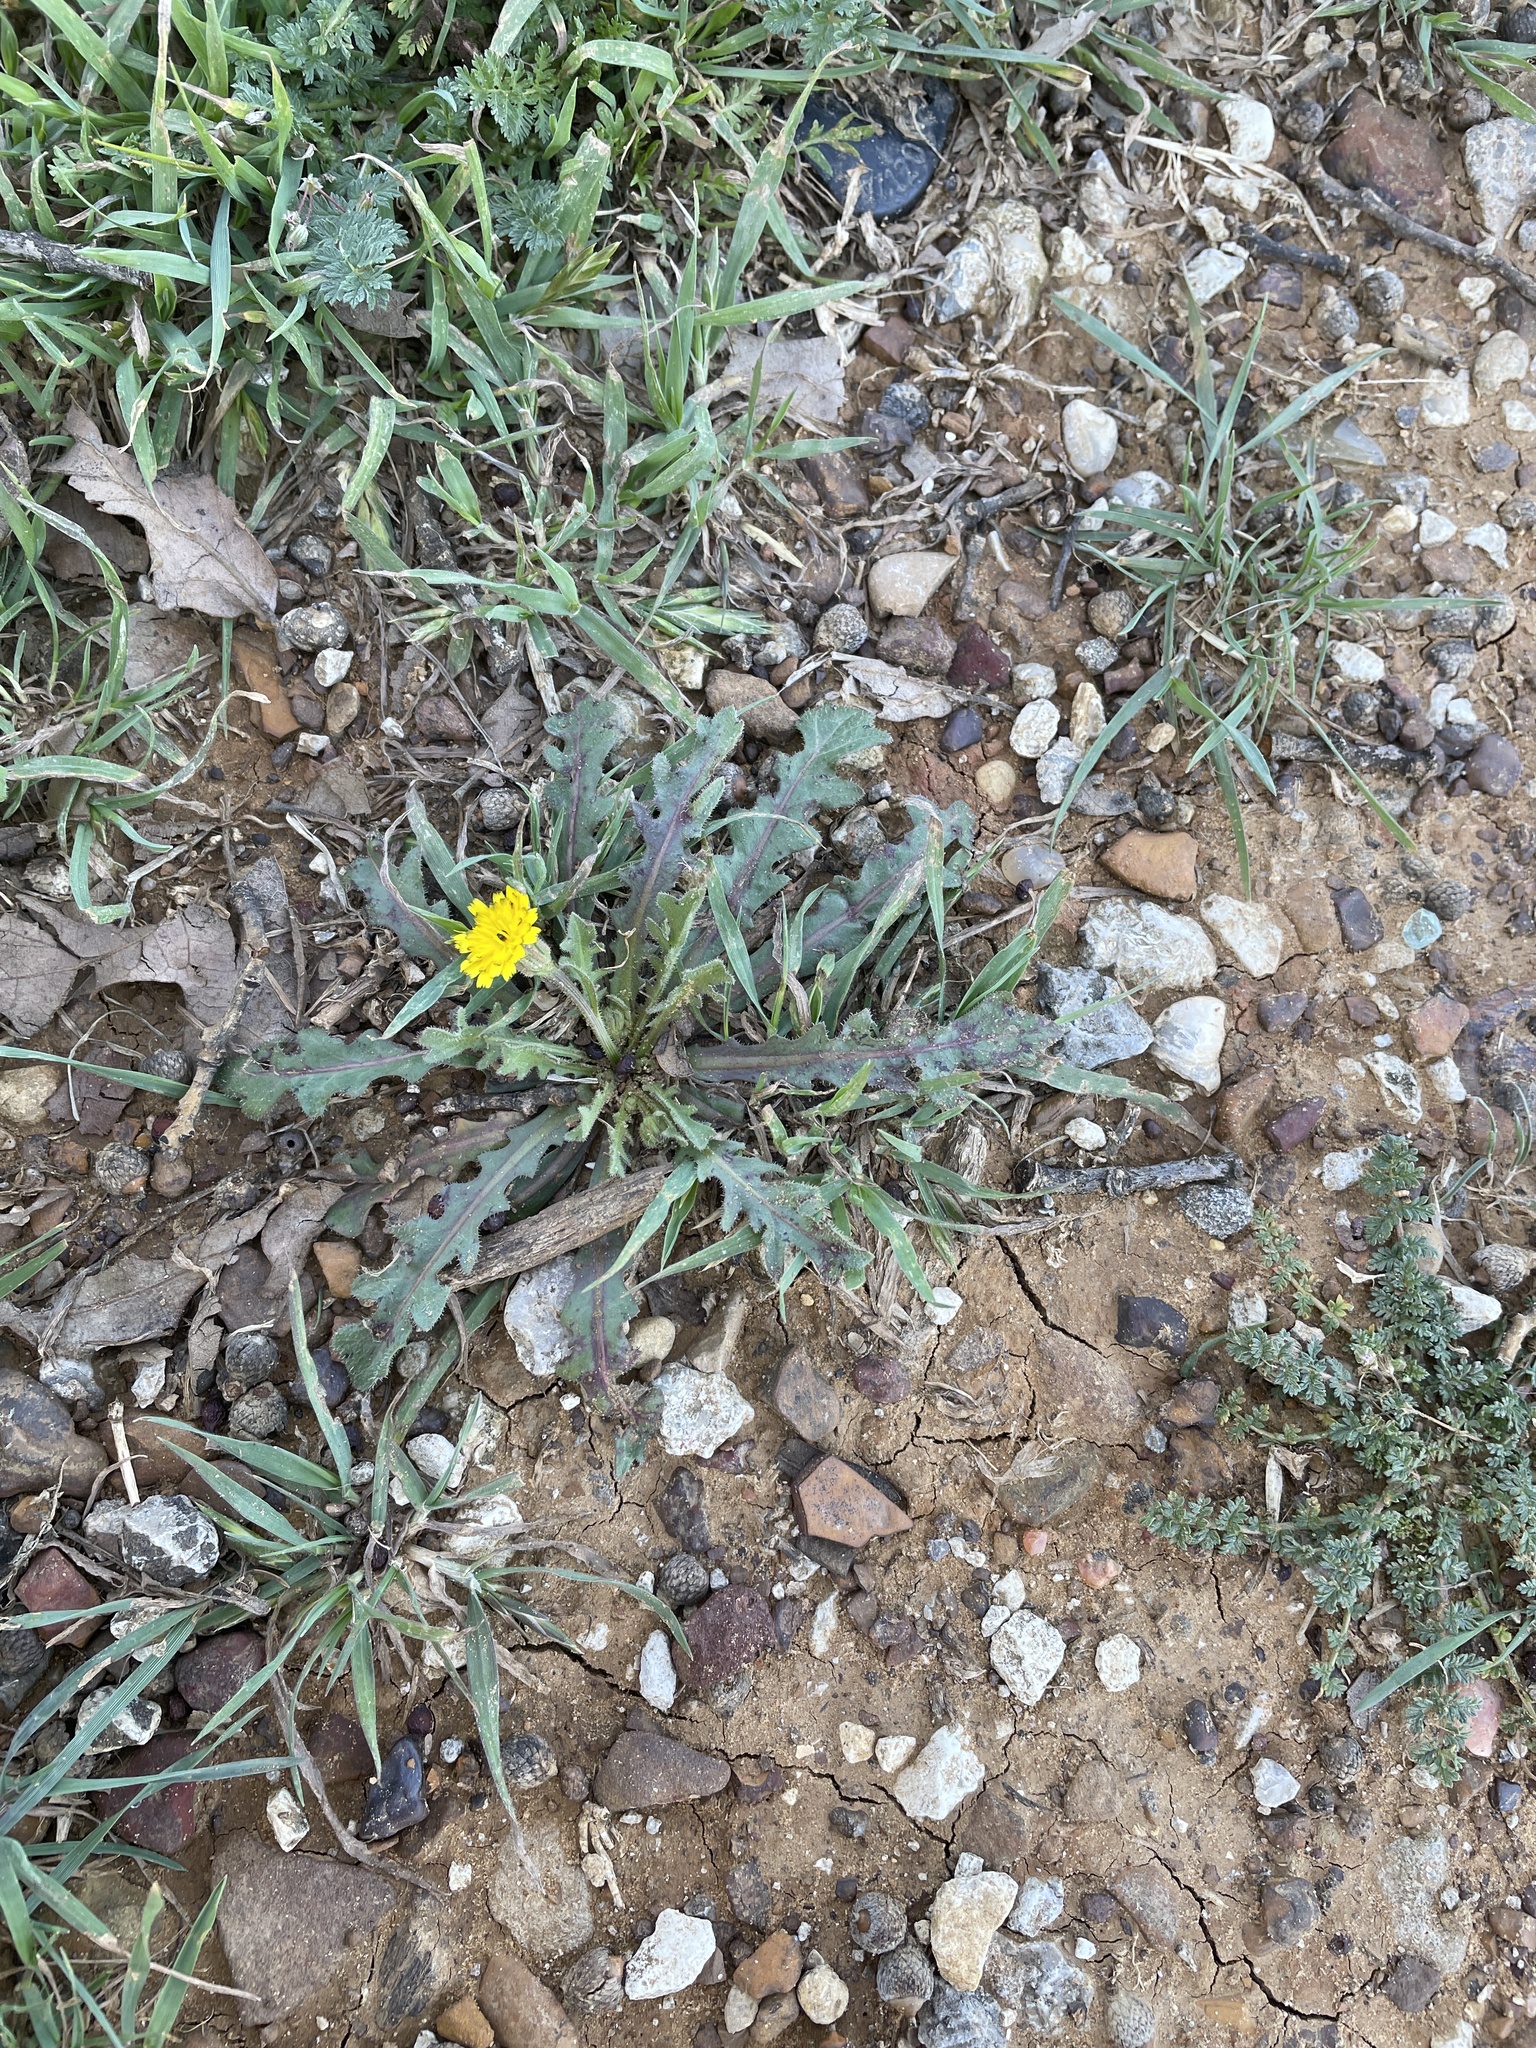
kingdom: Plantae
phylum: Tracheophyta
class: Magnoliopsida
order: Asterales
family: Asteraceae
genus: Hedypnois
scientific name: Hedypnois rhagadioloides
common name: Cretan weed
